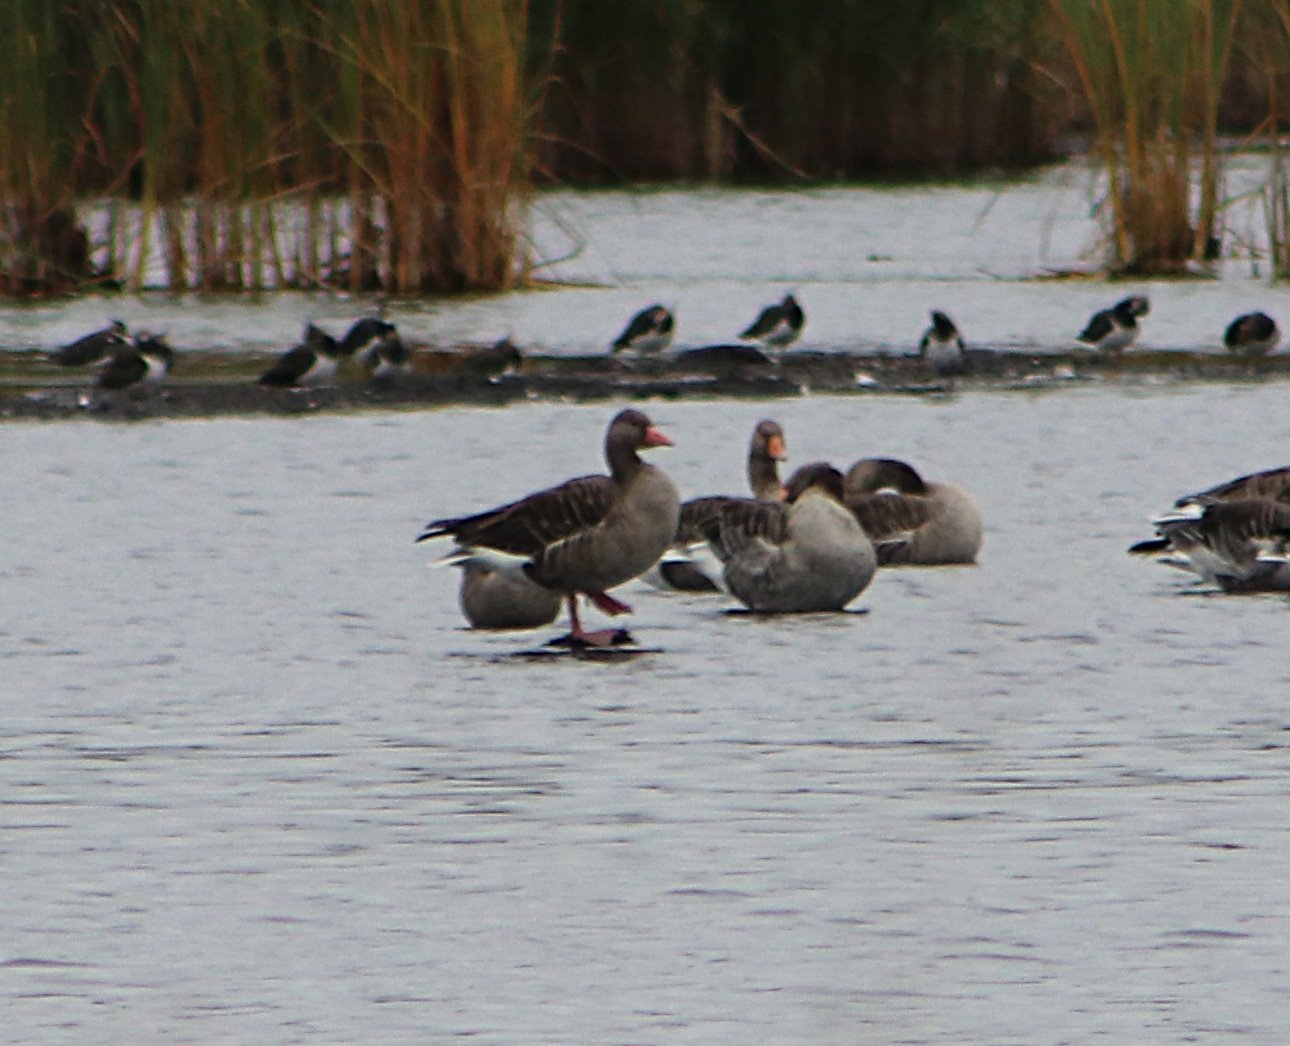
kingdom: Animalia
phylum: Chordata
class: Aves
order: Anseriformes
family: Anatidae
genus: Anser
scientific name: Anser anser
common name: Greylag goose
